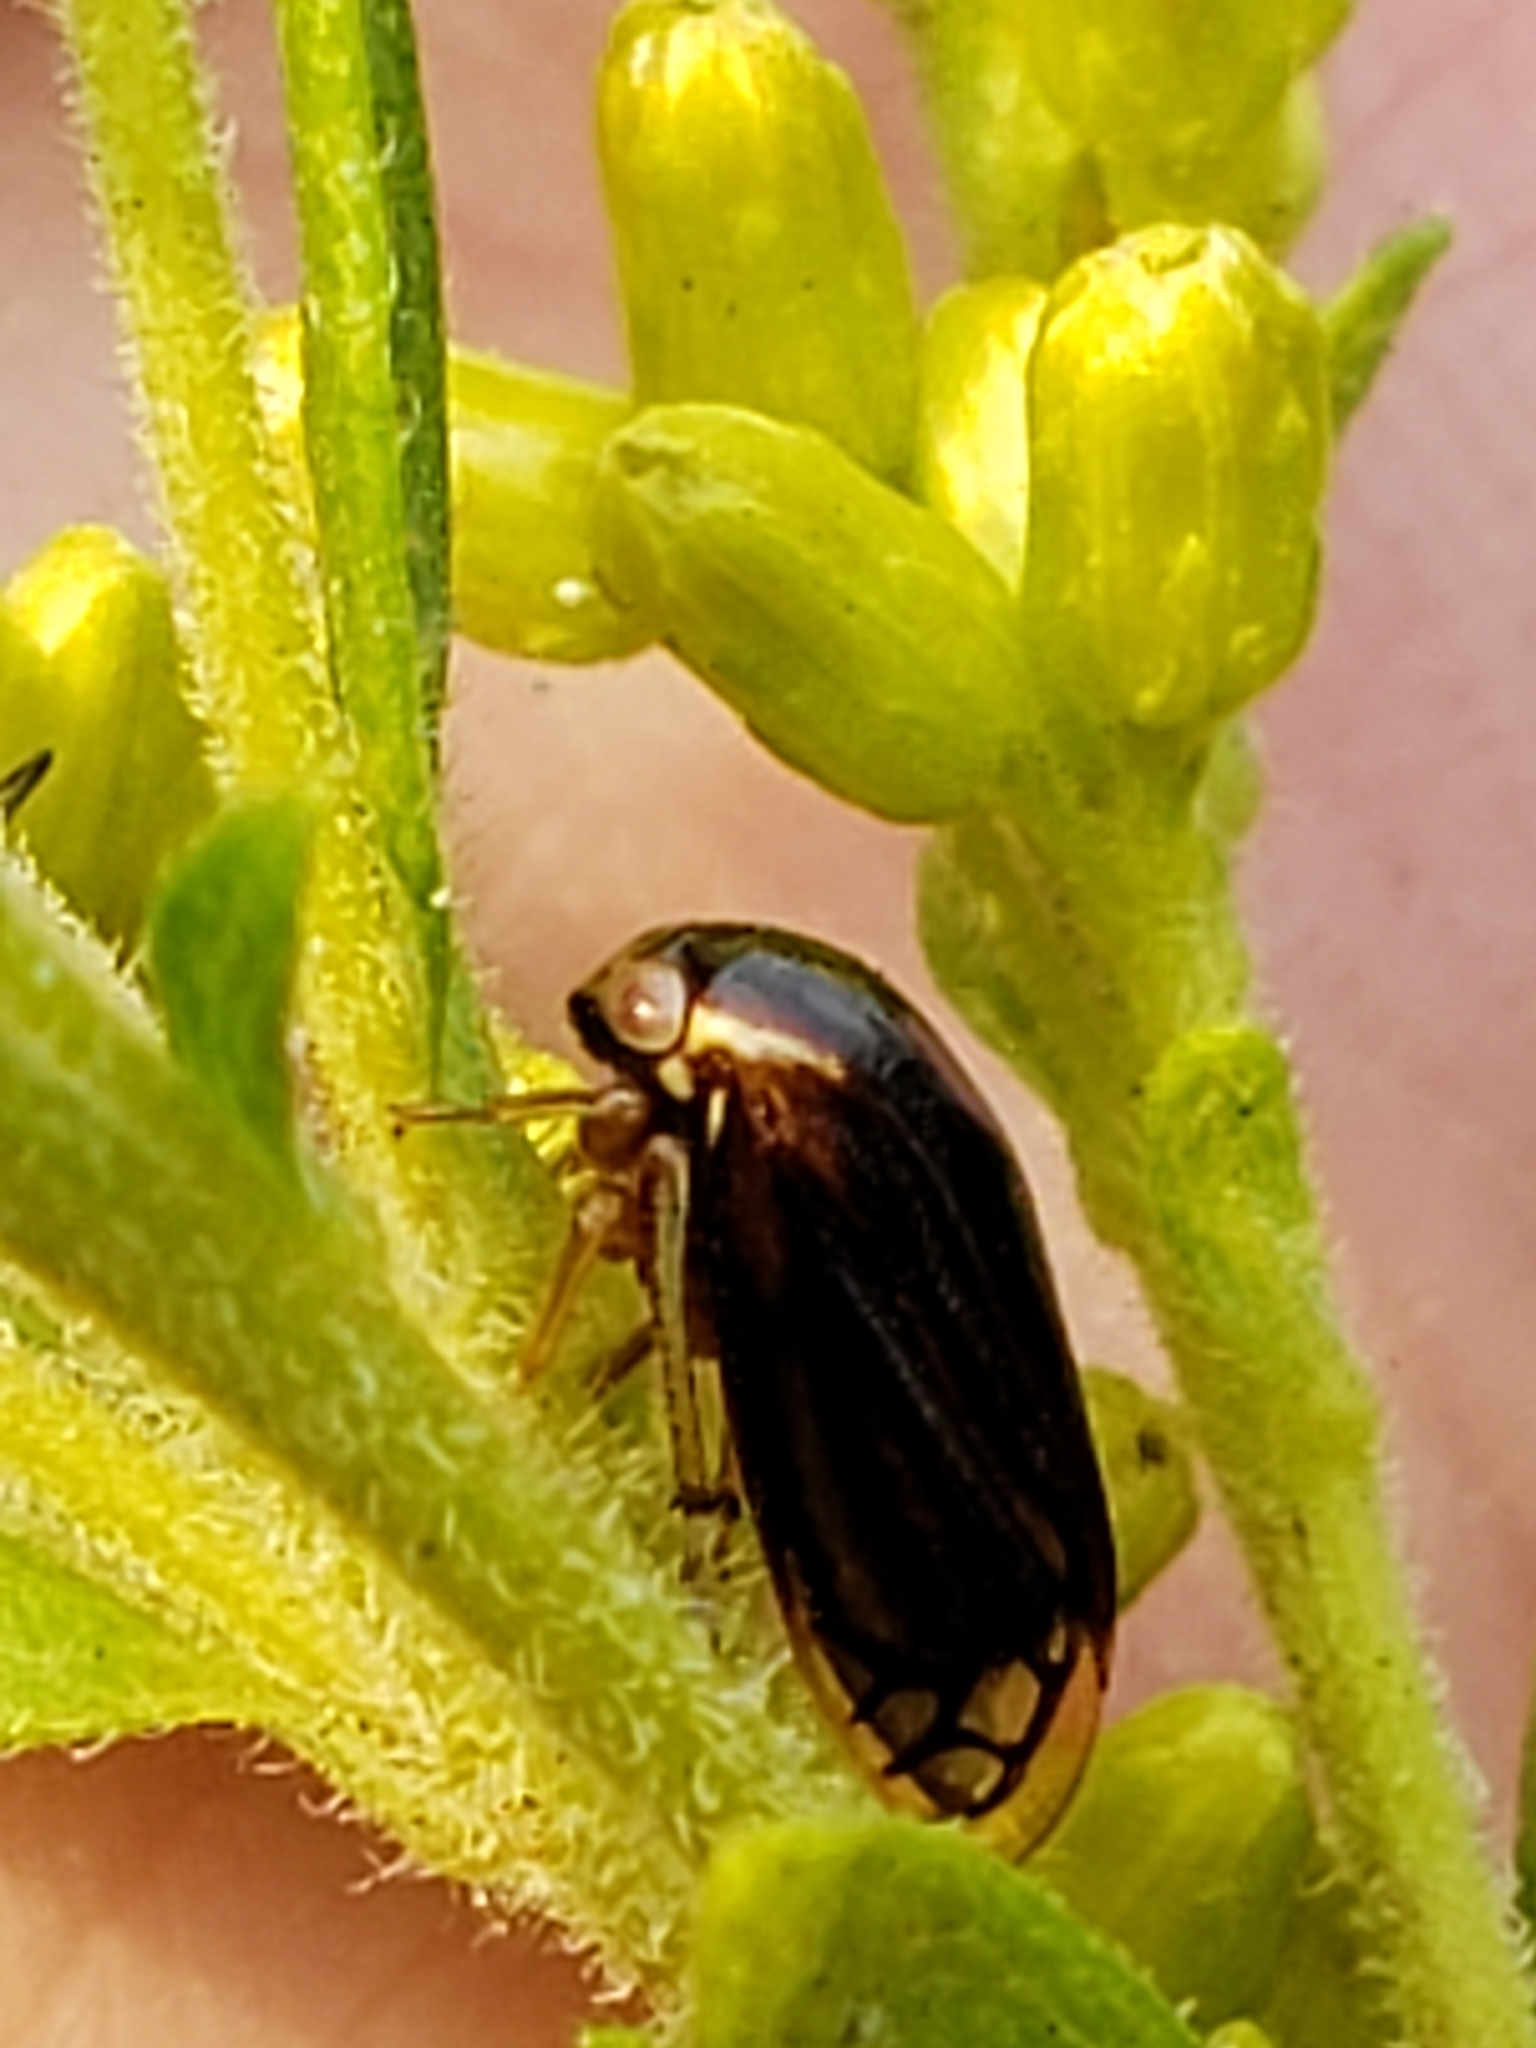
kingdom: Animalia
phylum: Arthropoda
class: Insecta
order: Hemiptera
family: Membracidae
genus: Acutalis
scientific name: Acutalis tartarea
